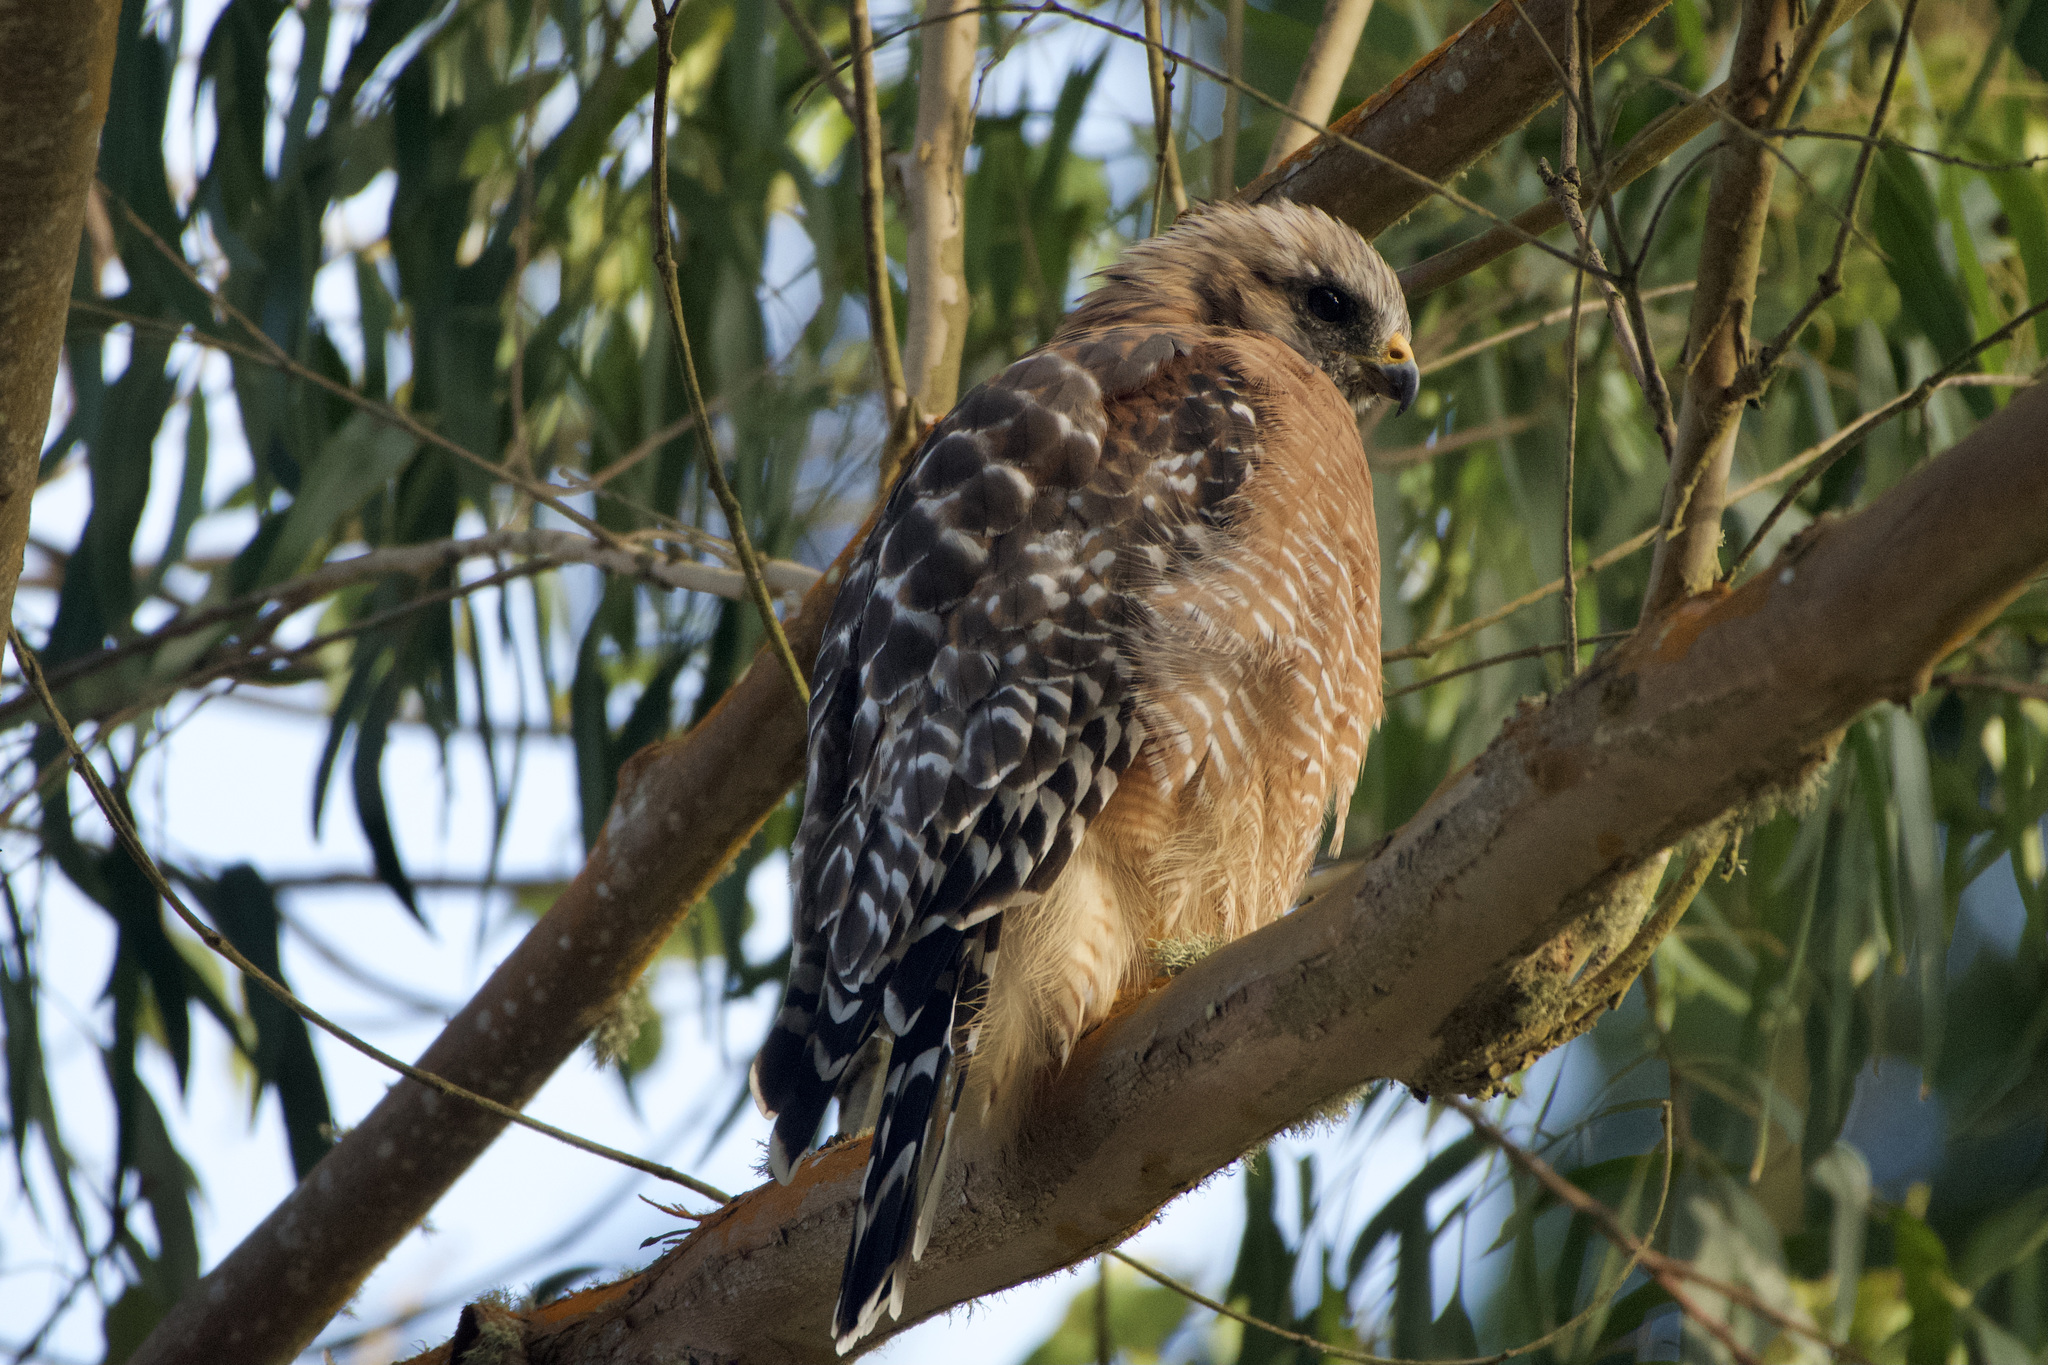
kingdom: Animalia
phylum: Chordata
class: Aves
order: Accipitriformes
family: Accipitridae
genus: Buteo
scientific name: Buteo lineatus
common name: Red-shouldered hawk
